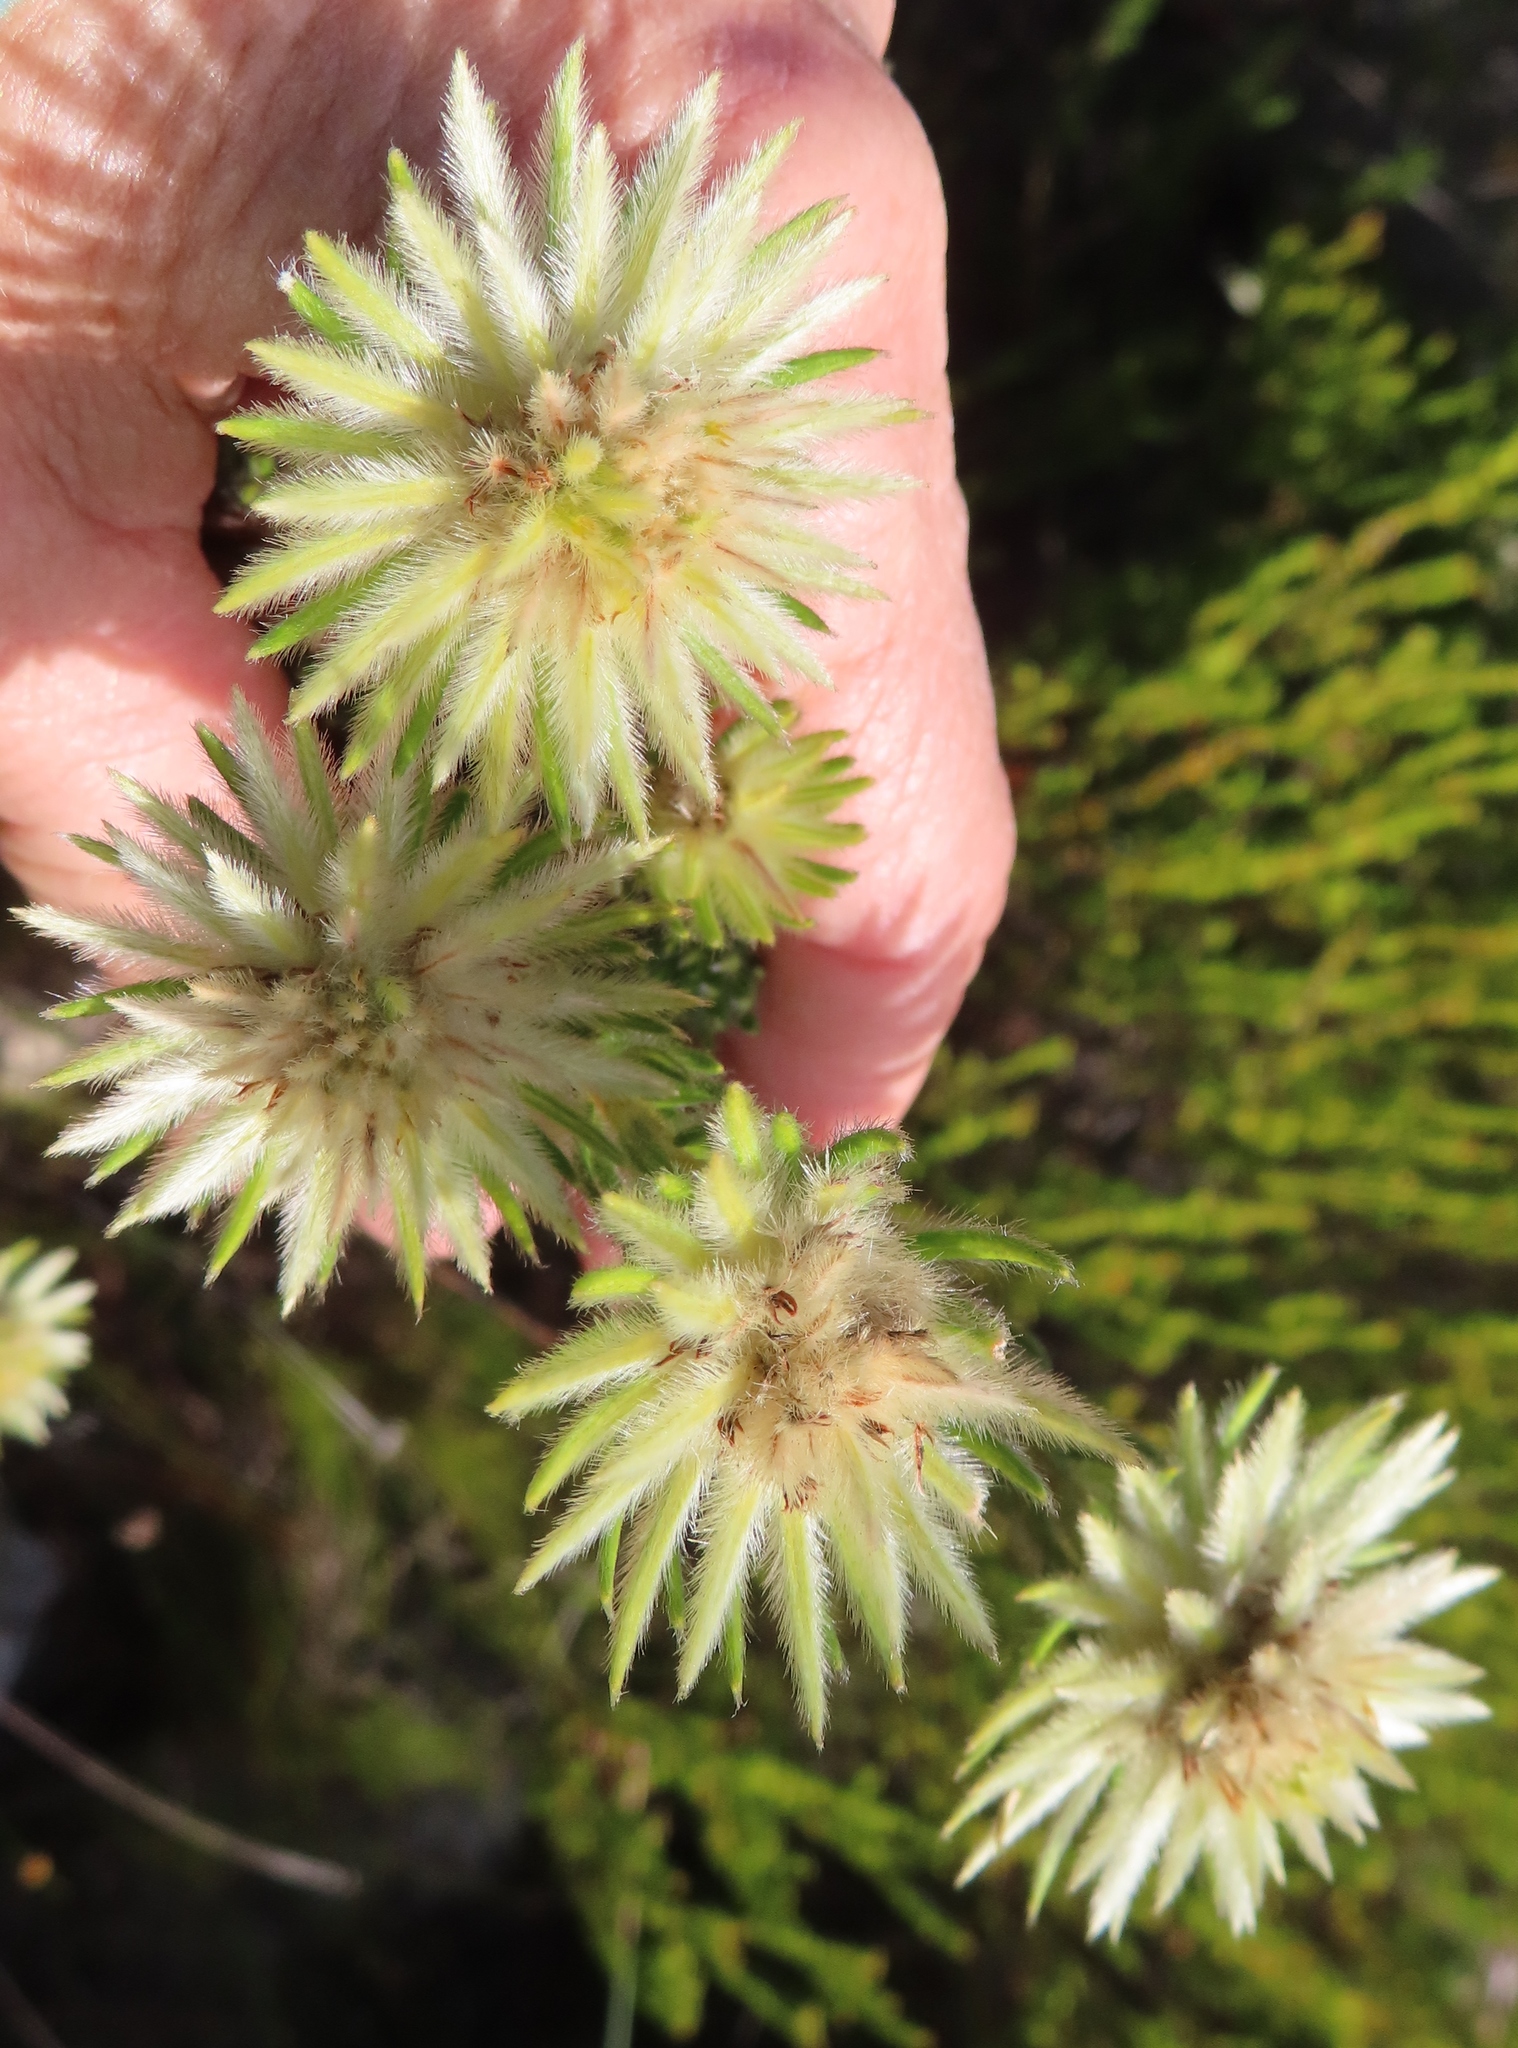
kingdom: Plantae
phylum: Tracheophyta
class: Magnoliopsida
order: Rosales
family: Rhamnaceae
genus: Phylica
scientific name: Phylica pubescens
